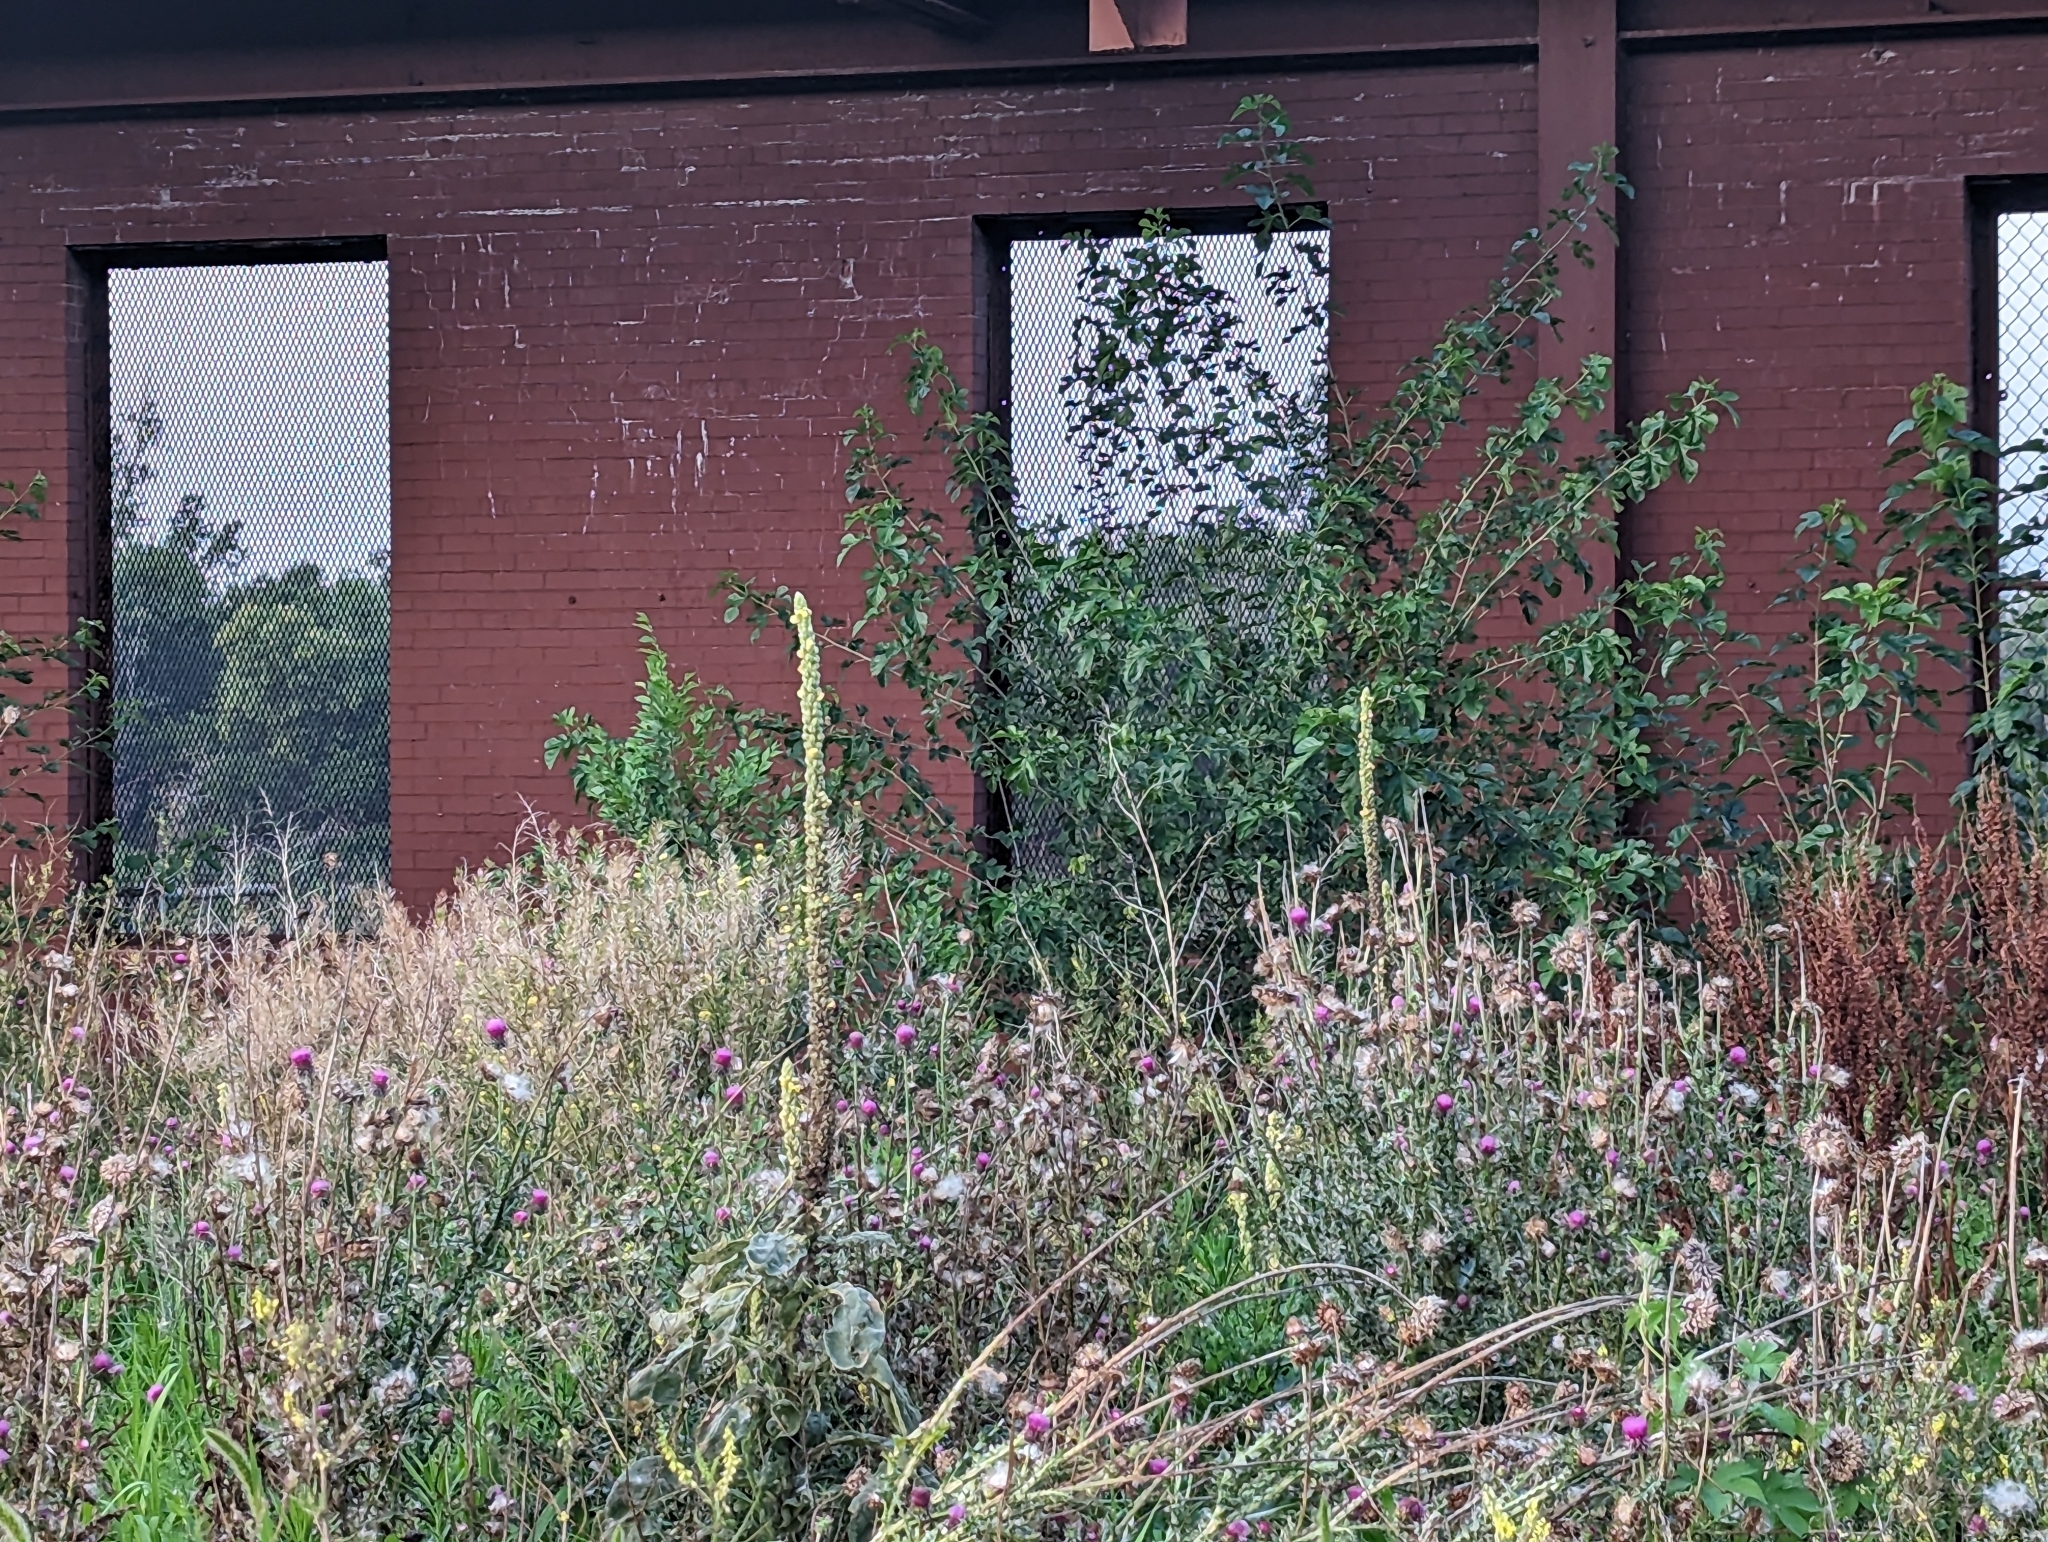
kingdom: Plantae
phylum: Tracheophyta
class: Magnoliopsida
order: Lamiales
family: Scrophulariaceae
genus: Verbascum
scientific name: Verbascum thapsus
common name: Common mullein
